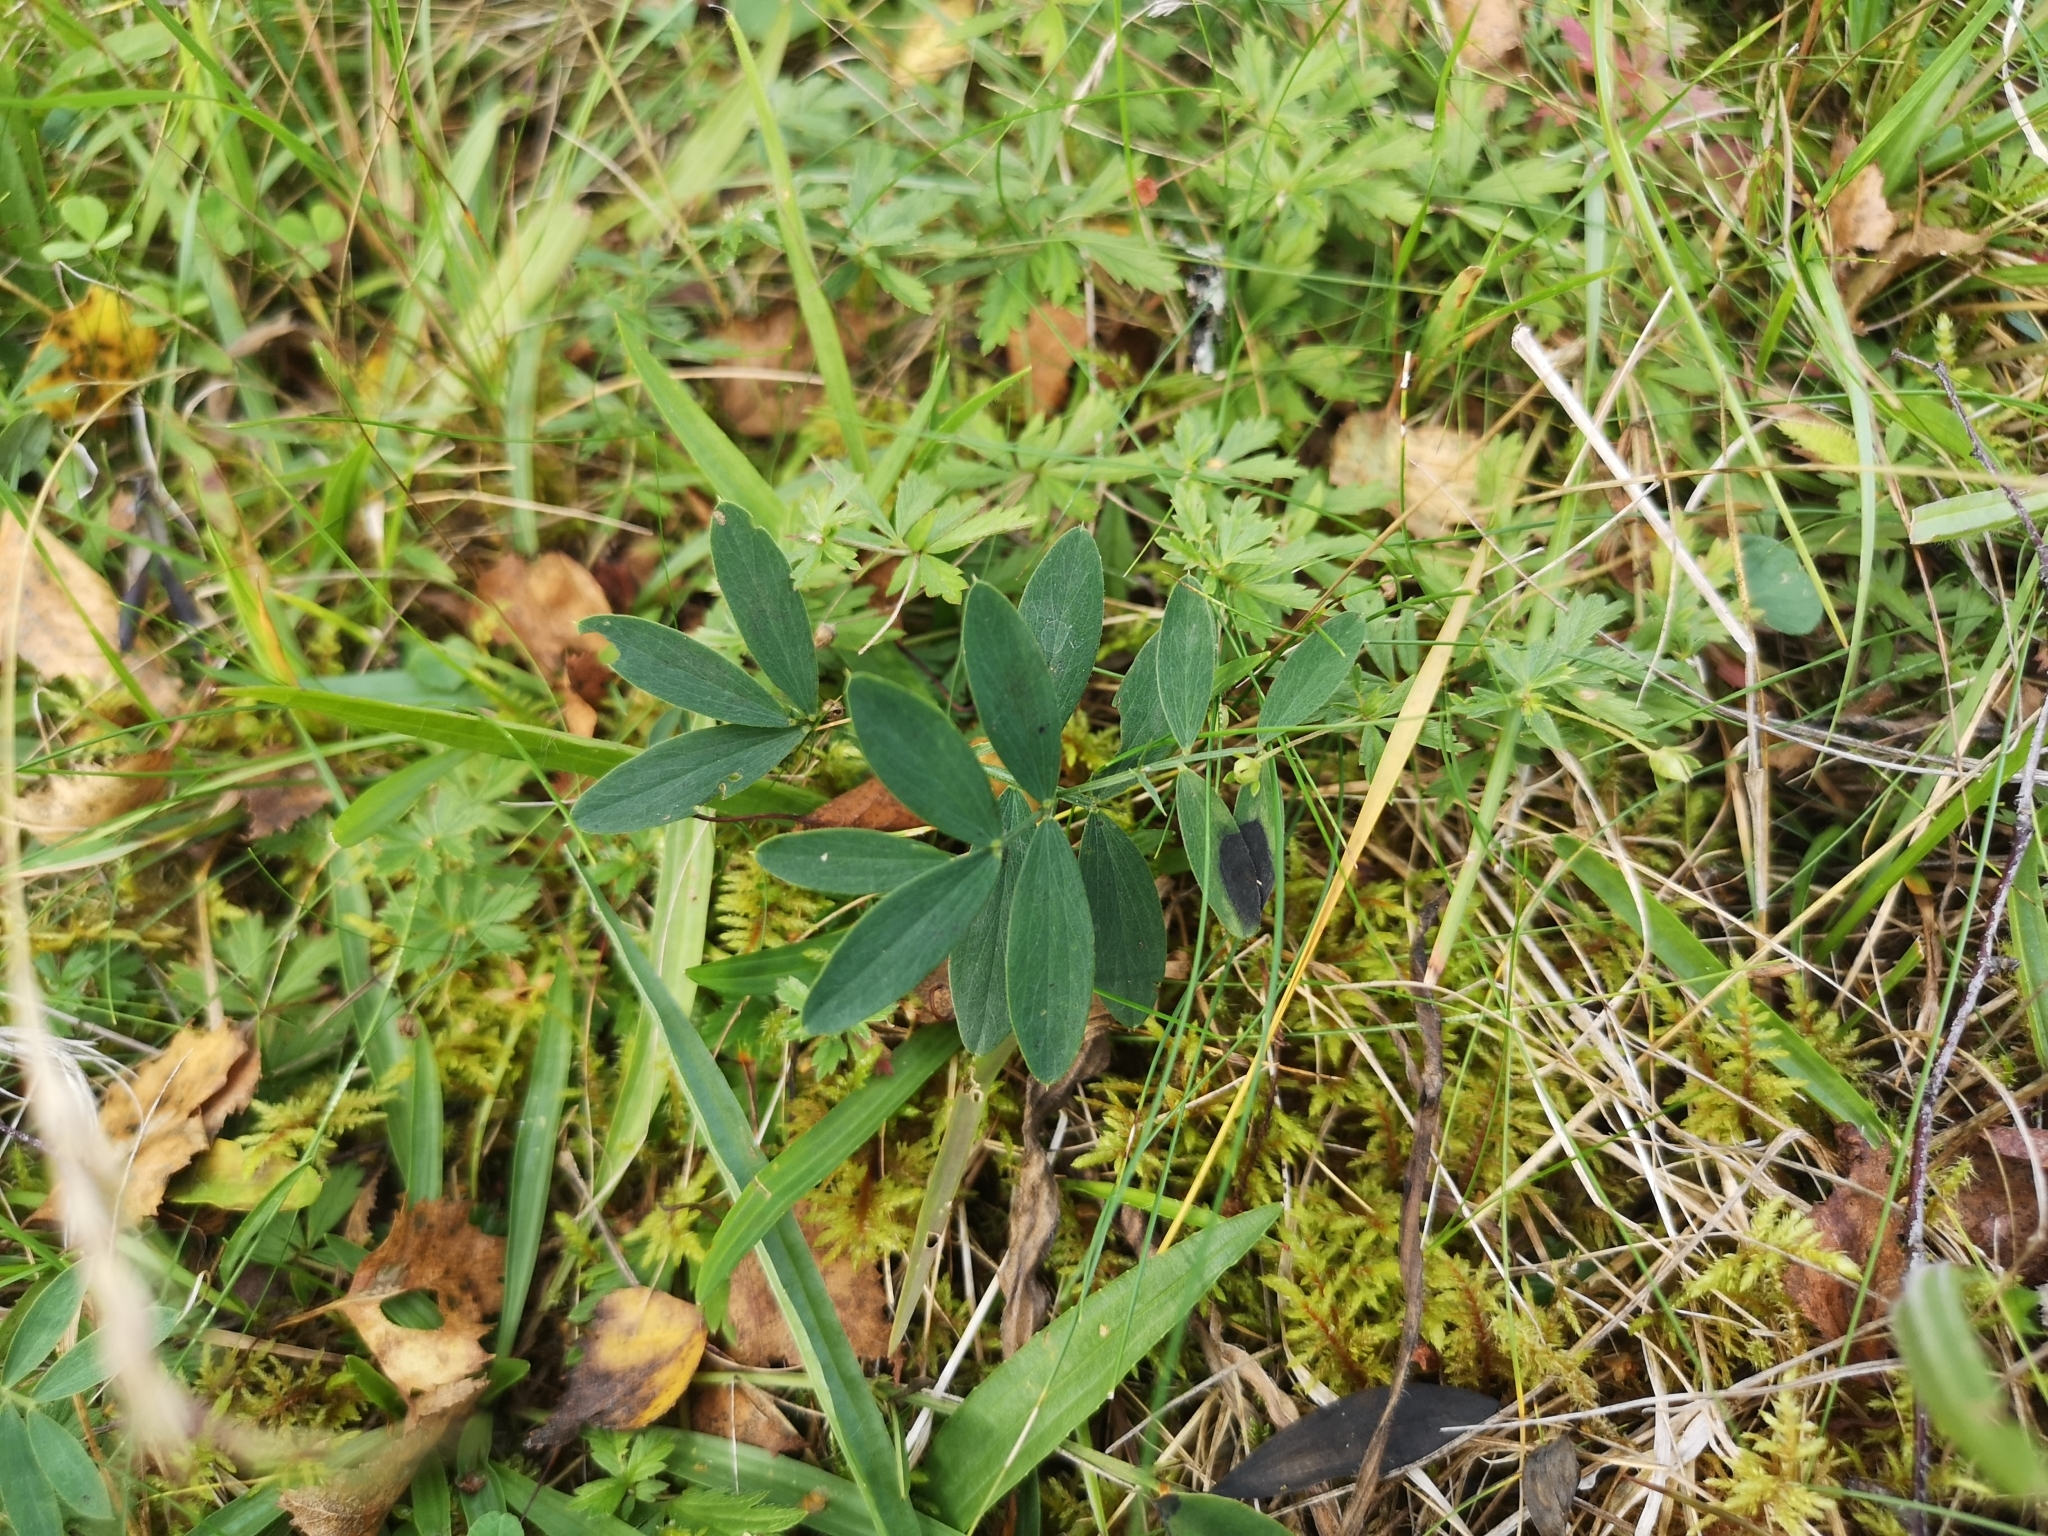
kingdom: Plantae
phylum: Tracheophyta
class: Magnoliopsida
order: Fabales
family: Fabaceae
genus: Lathyrus
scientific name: Lathyrus linifolius
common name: Bitter-vetch
